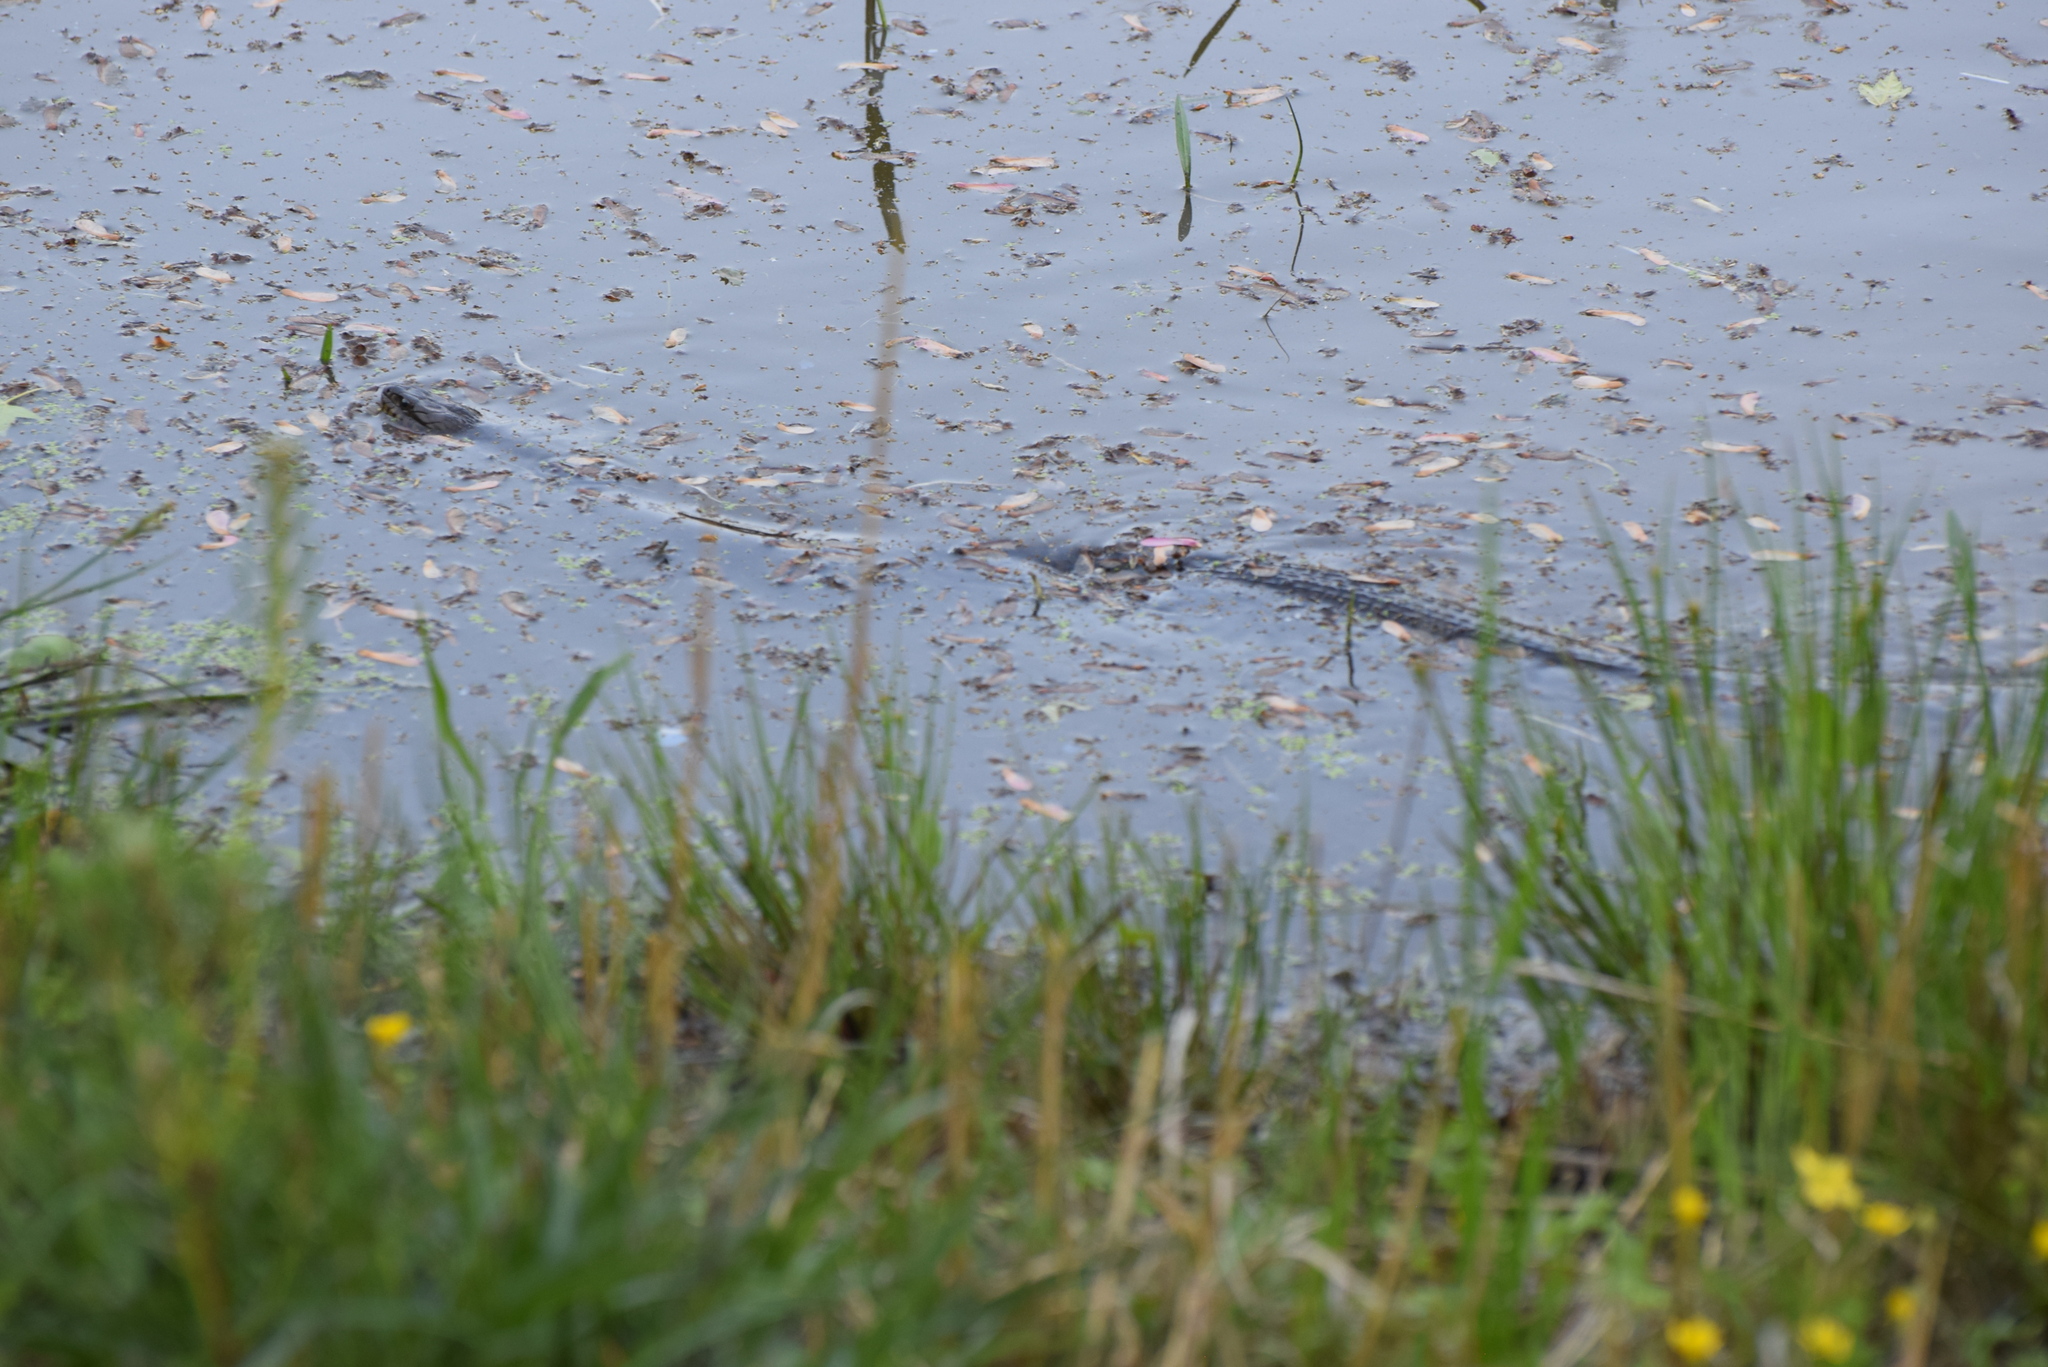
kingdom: Animalia
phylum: Chordata
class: Squamata
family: Colubridae
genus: Nerodia
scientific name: Nerodia sipedon
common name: Northern water snake
